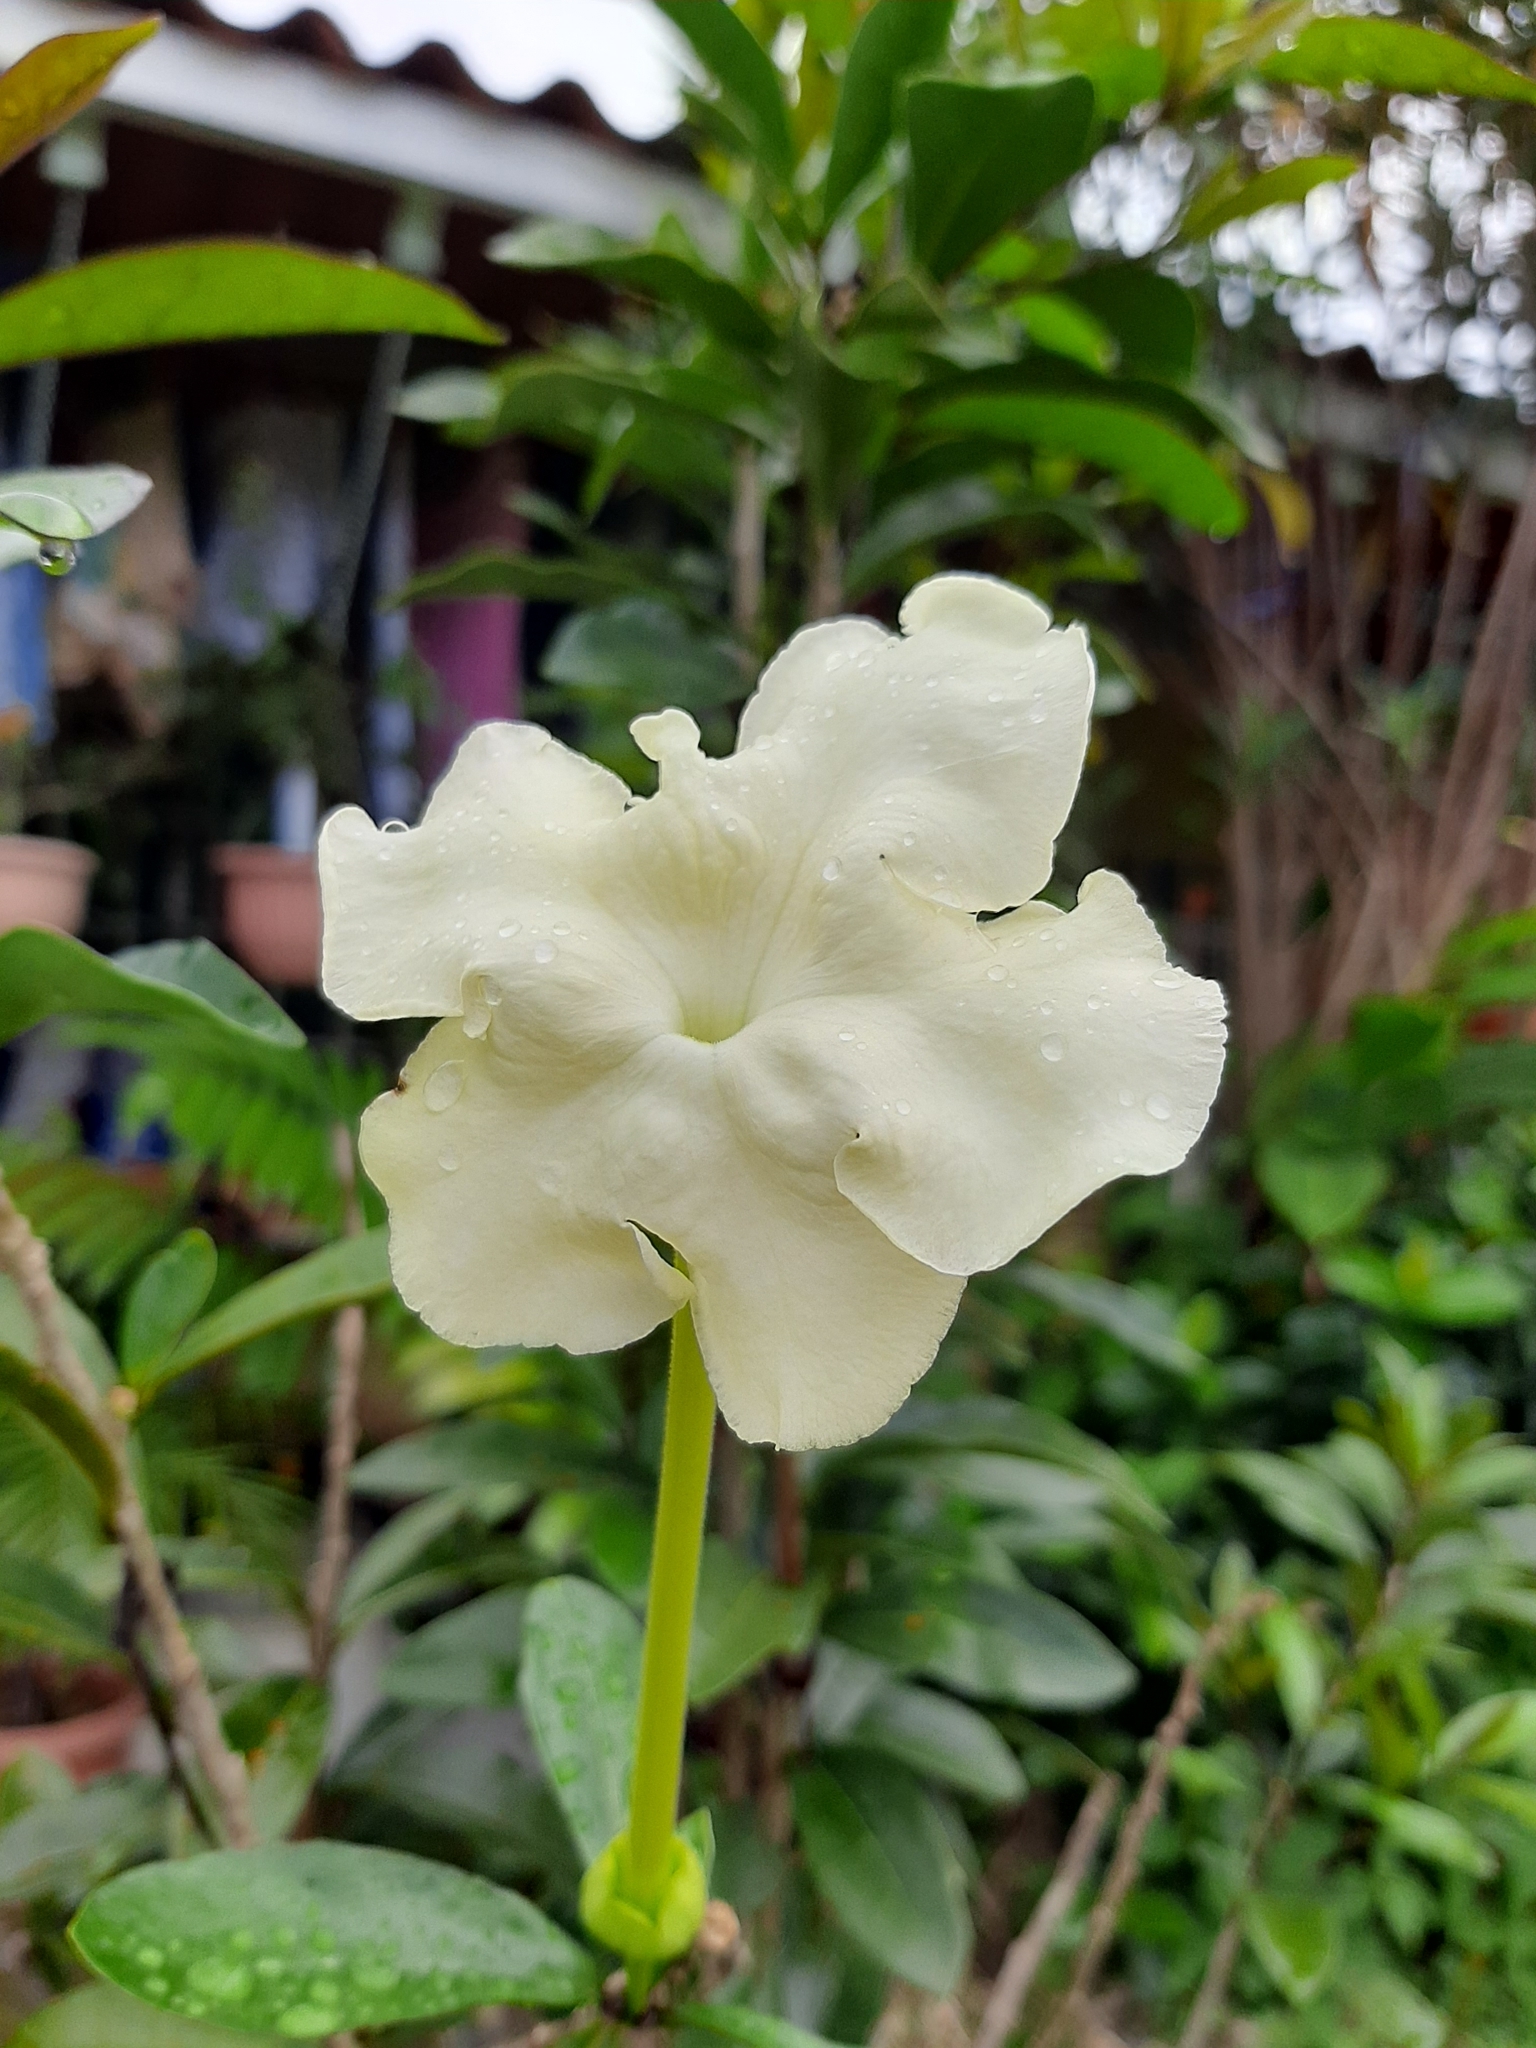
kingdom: Plantae
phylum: Tracheophyta
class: Magnoliopsida
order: Solanales
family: Solanaceae
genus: Brunfelsia
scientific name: Brunfelsia americana
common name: Lady-of-the-night
